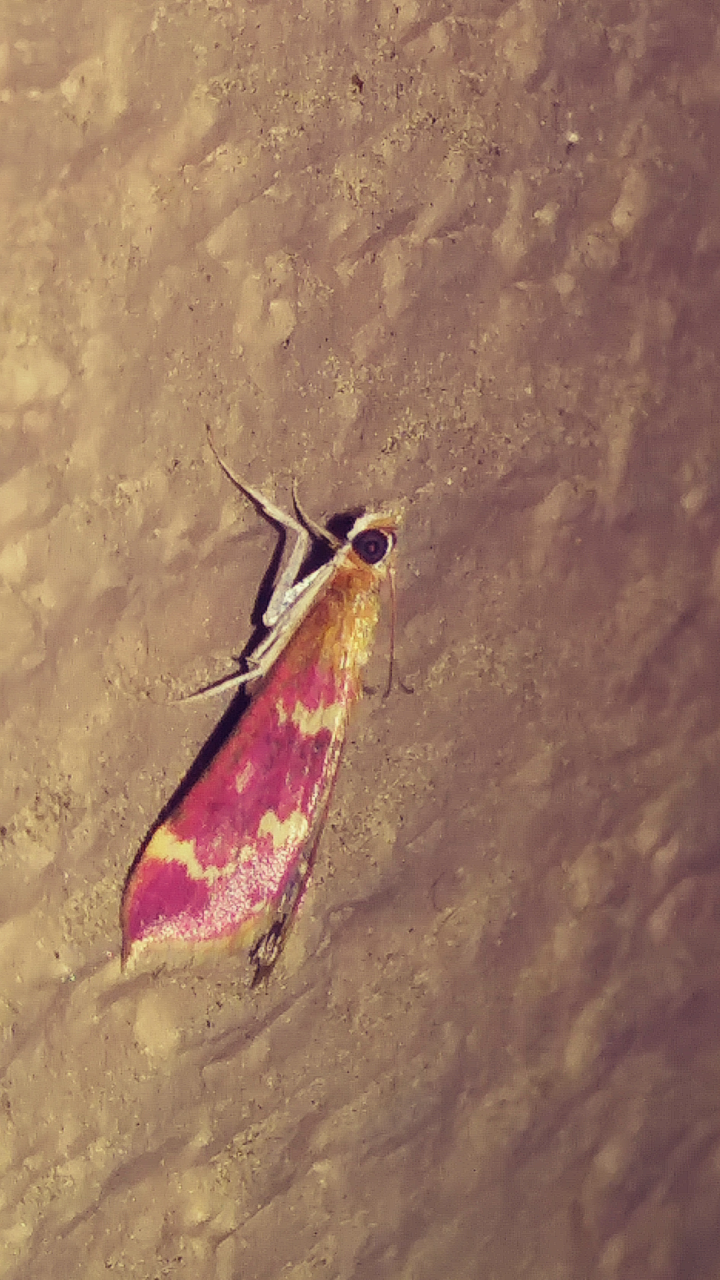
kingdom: Animalia
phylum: Arthropoda
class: Insecta
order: Lepidoptera
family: Crambidae
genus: Pyrausta
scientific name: Pyrausta signatalis
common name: Raspberry pyrausta moth
